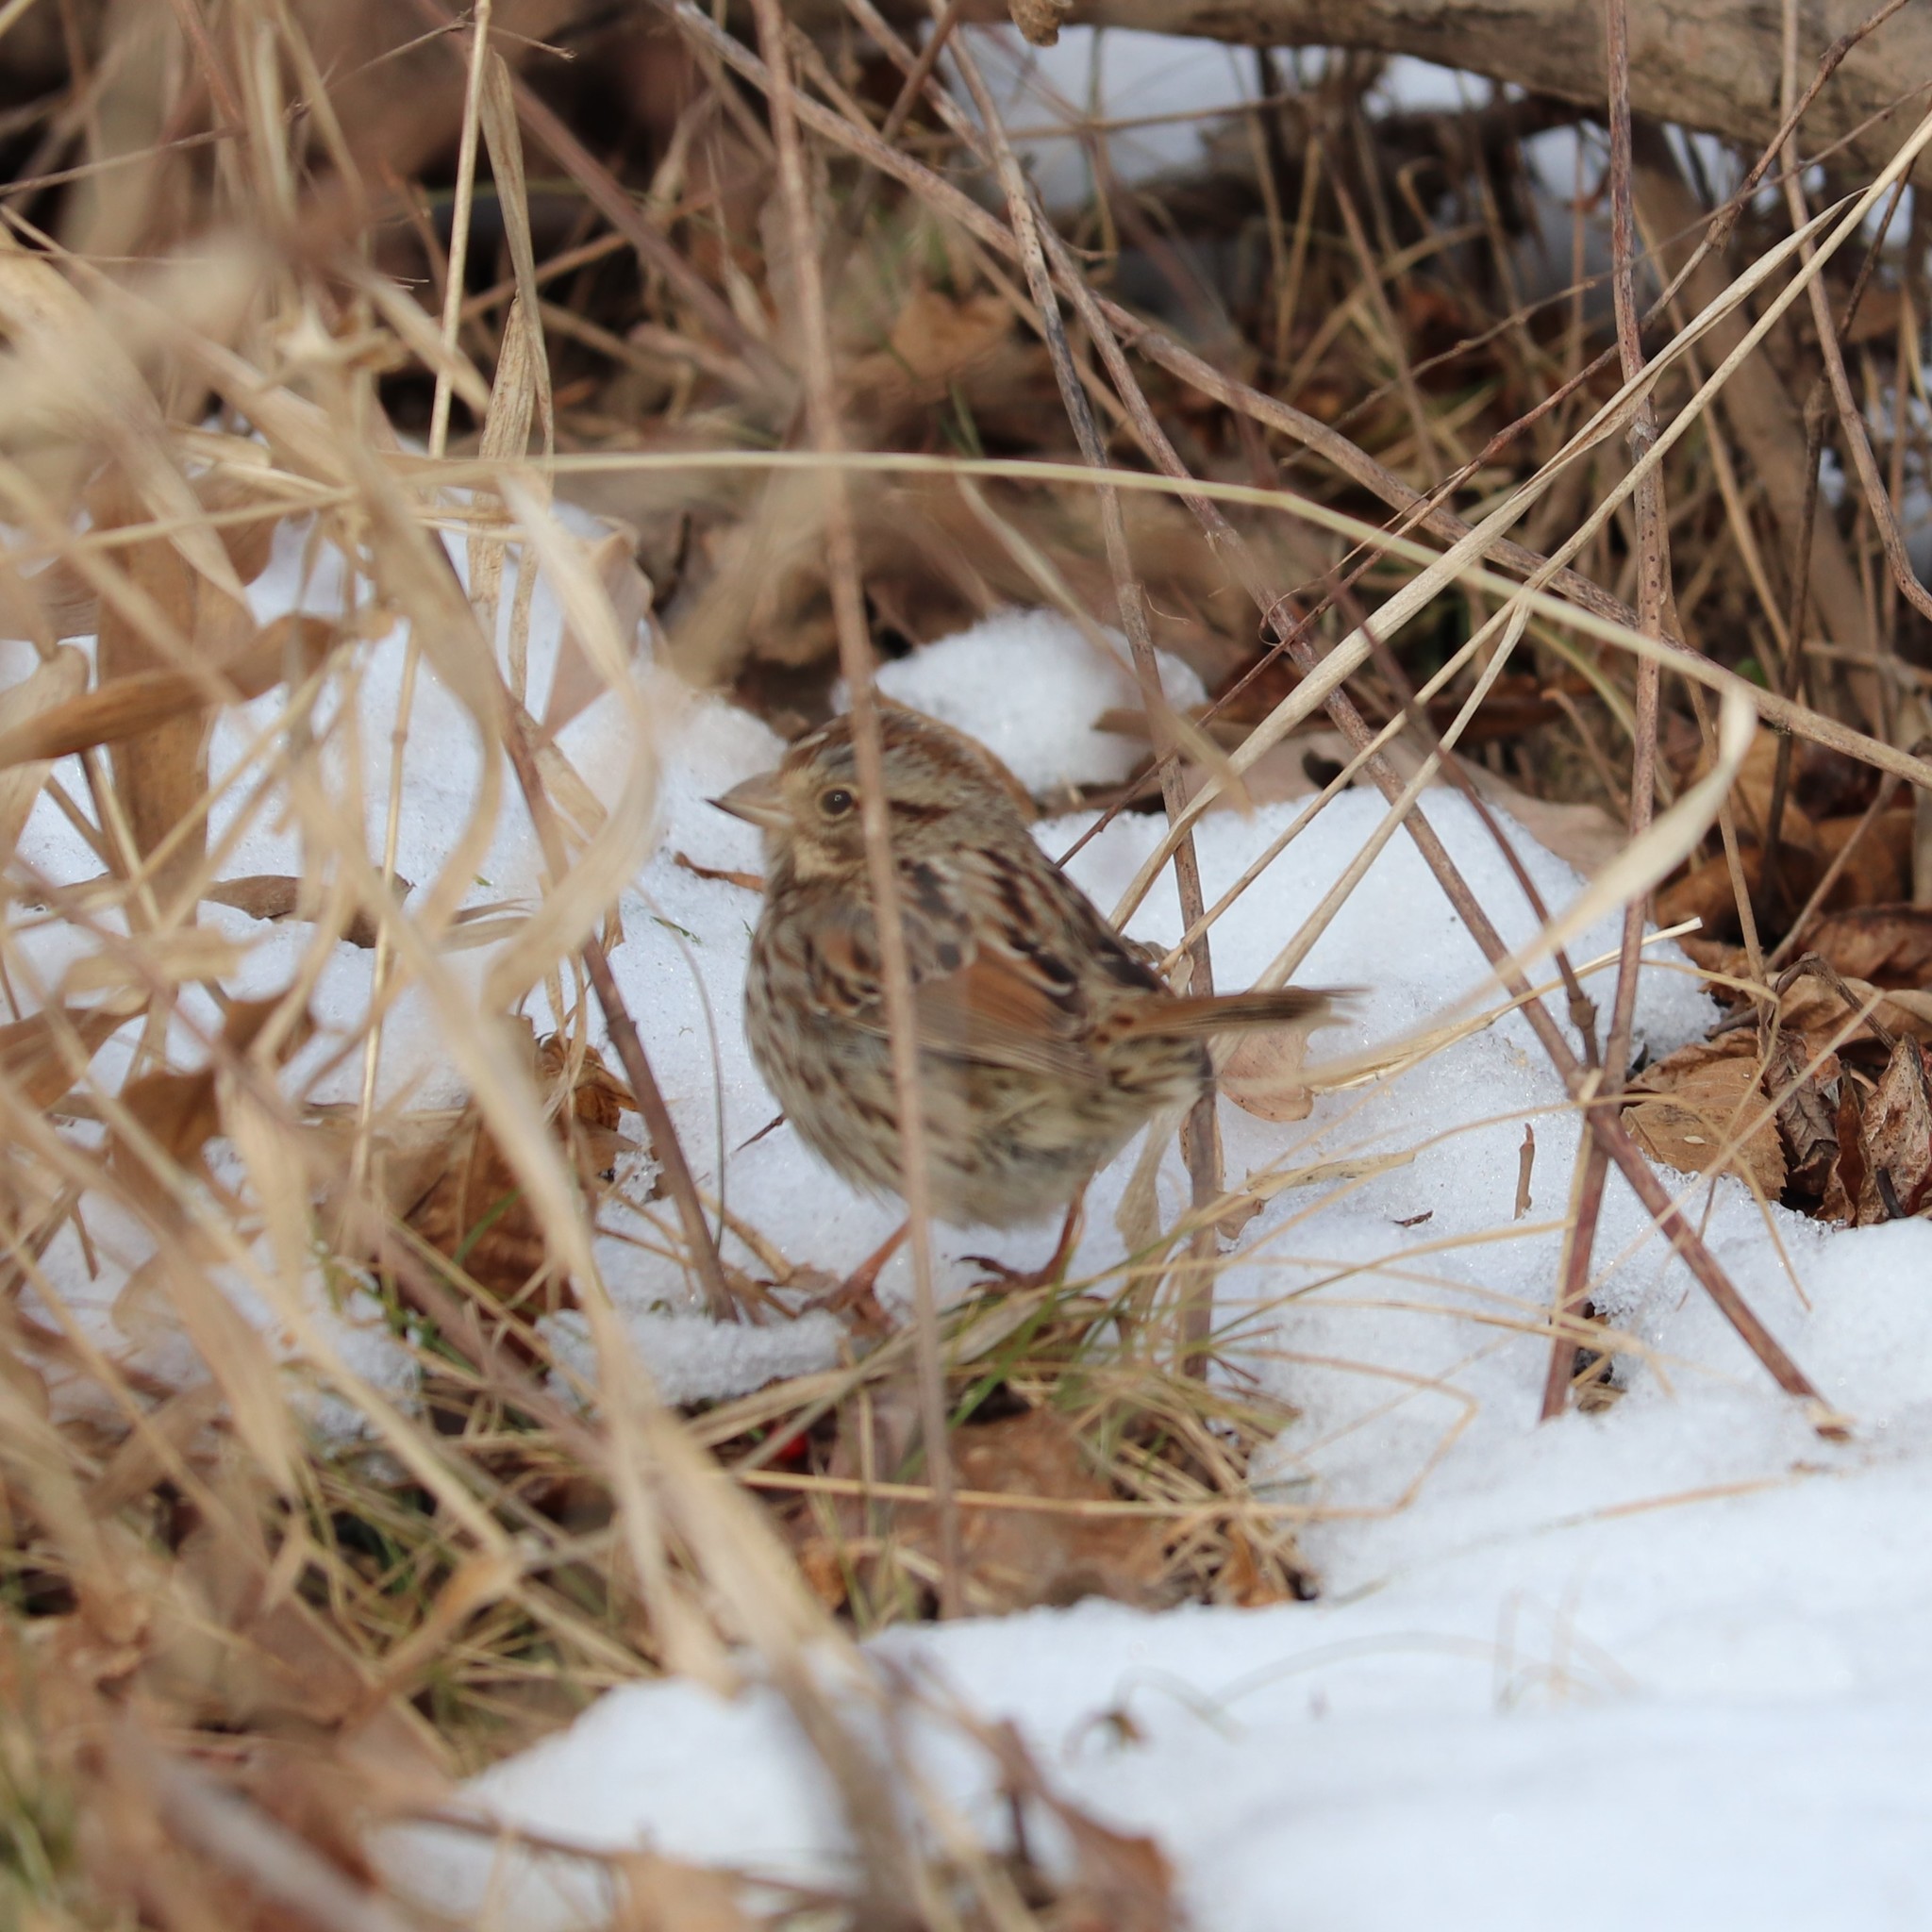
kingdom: Animalia
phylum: Chordata
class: Aves
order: Passeriformes
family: Passerellidae
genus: Melospiza
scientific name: Melospiza melodia
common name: Song sparrow
